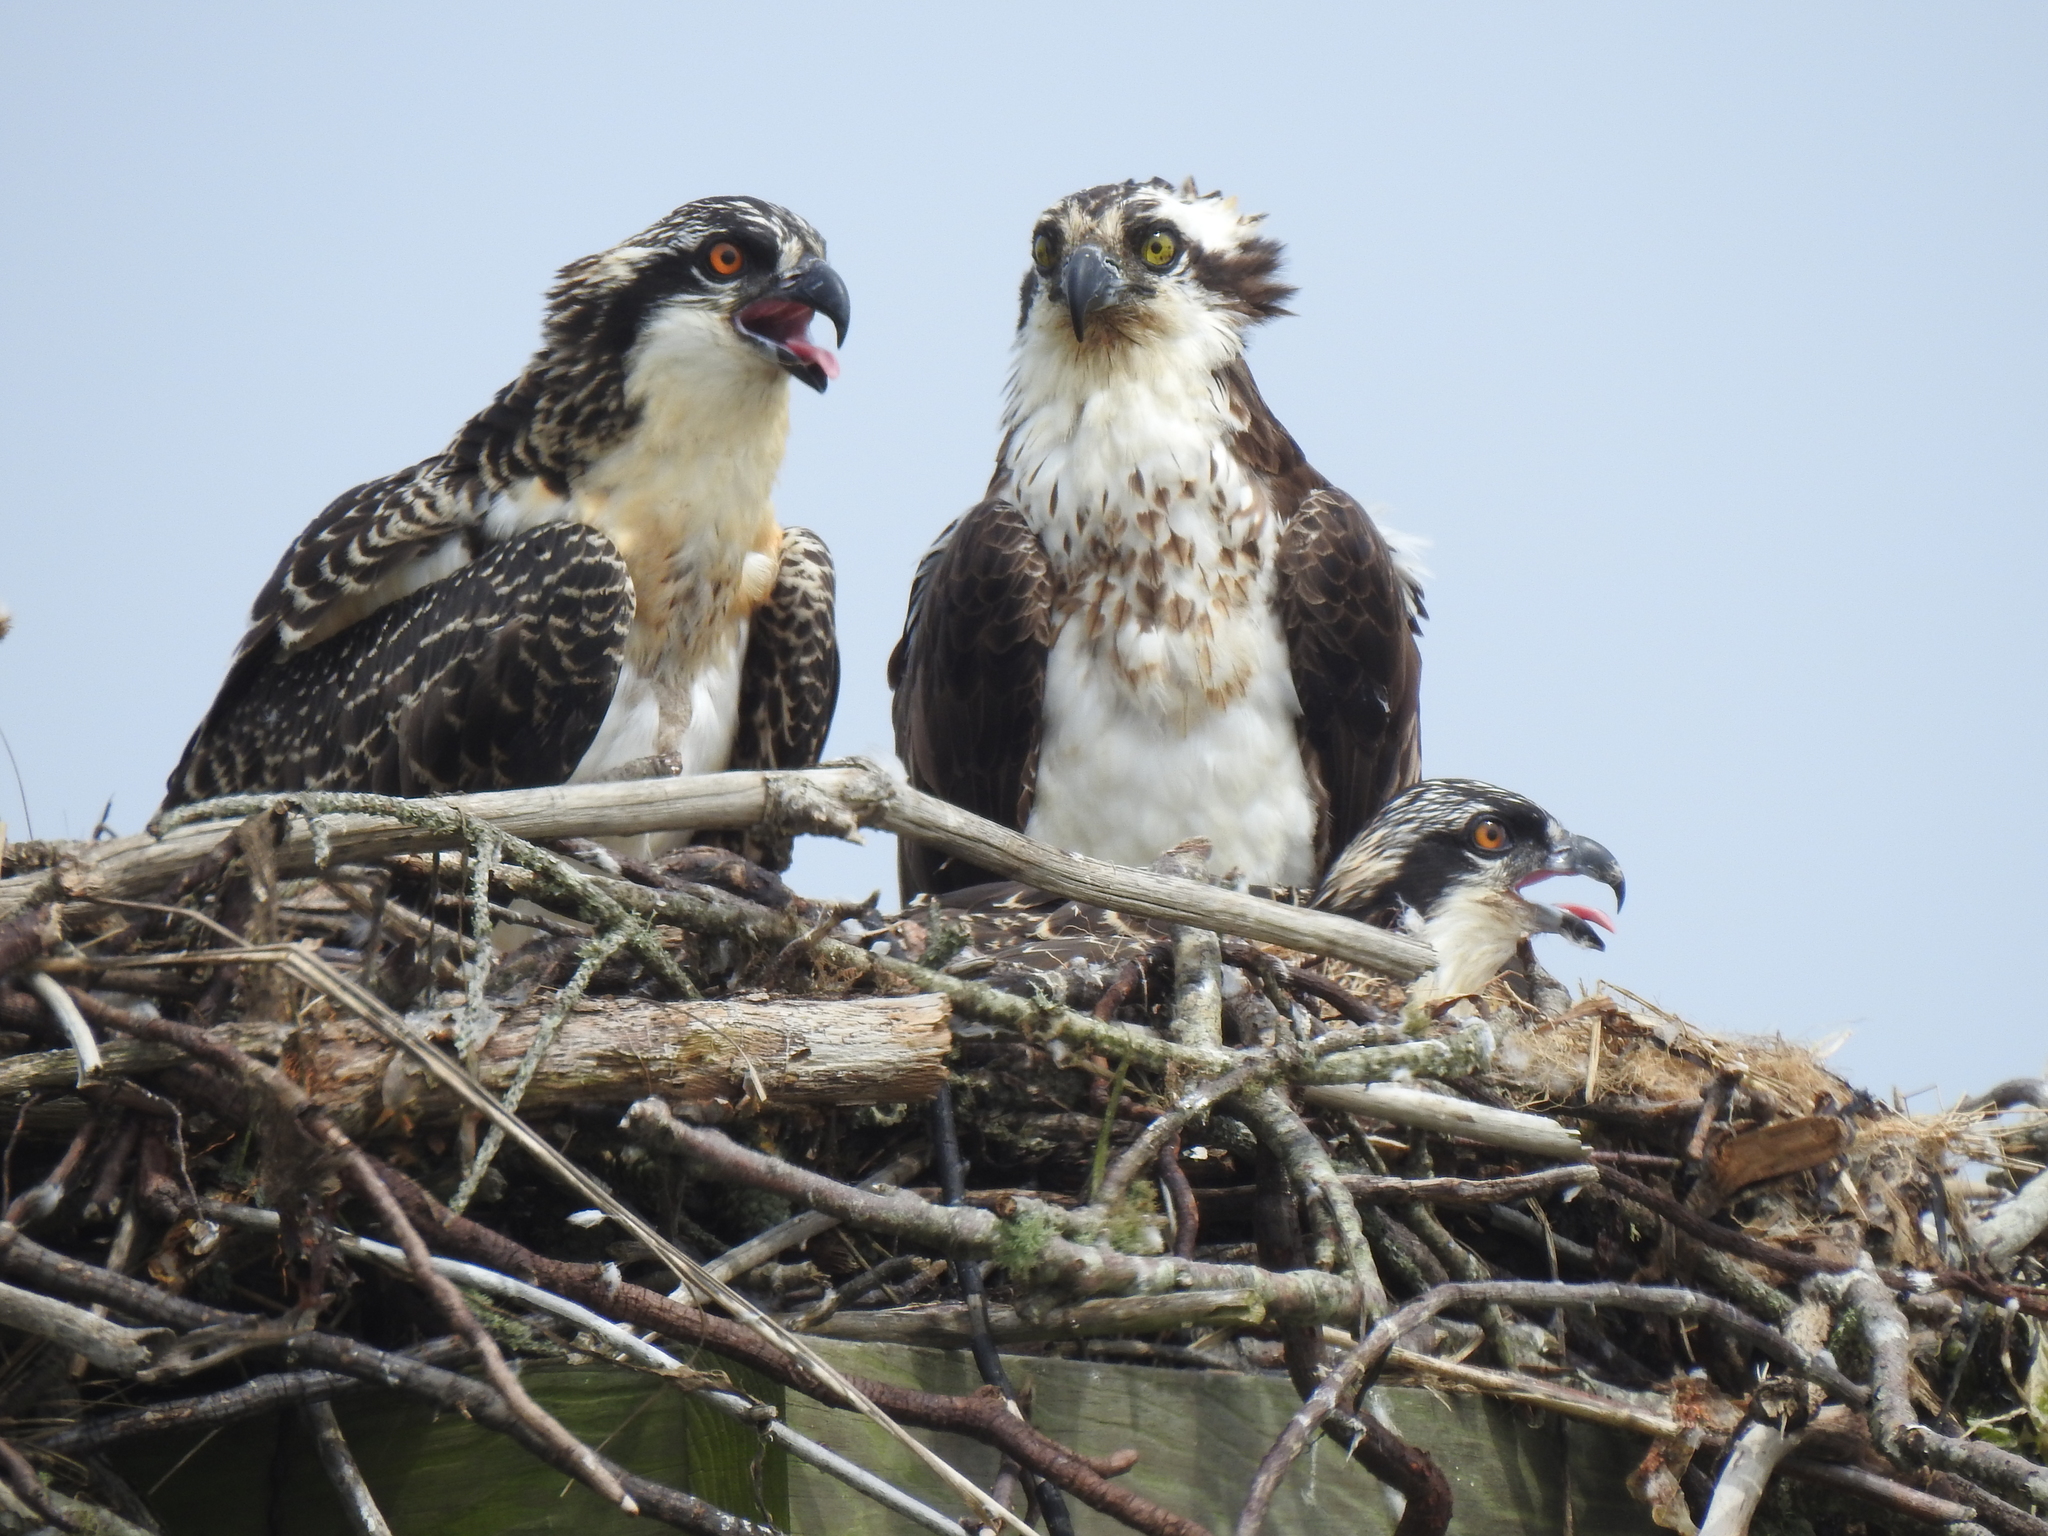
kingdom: Animalia
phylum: Chordata
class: Aves
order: Accipitriformes
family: Pandionidae
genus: Pandion
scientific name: Pandion haliaetus
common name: Osprey
